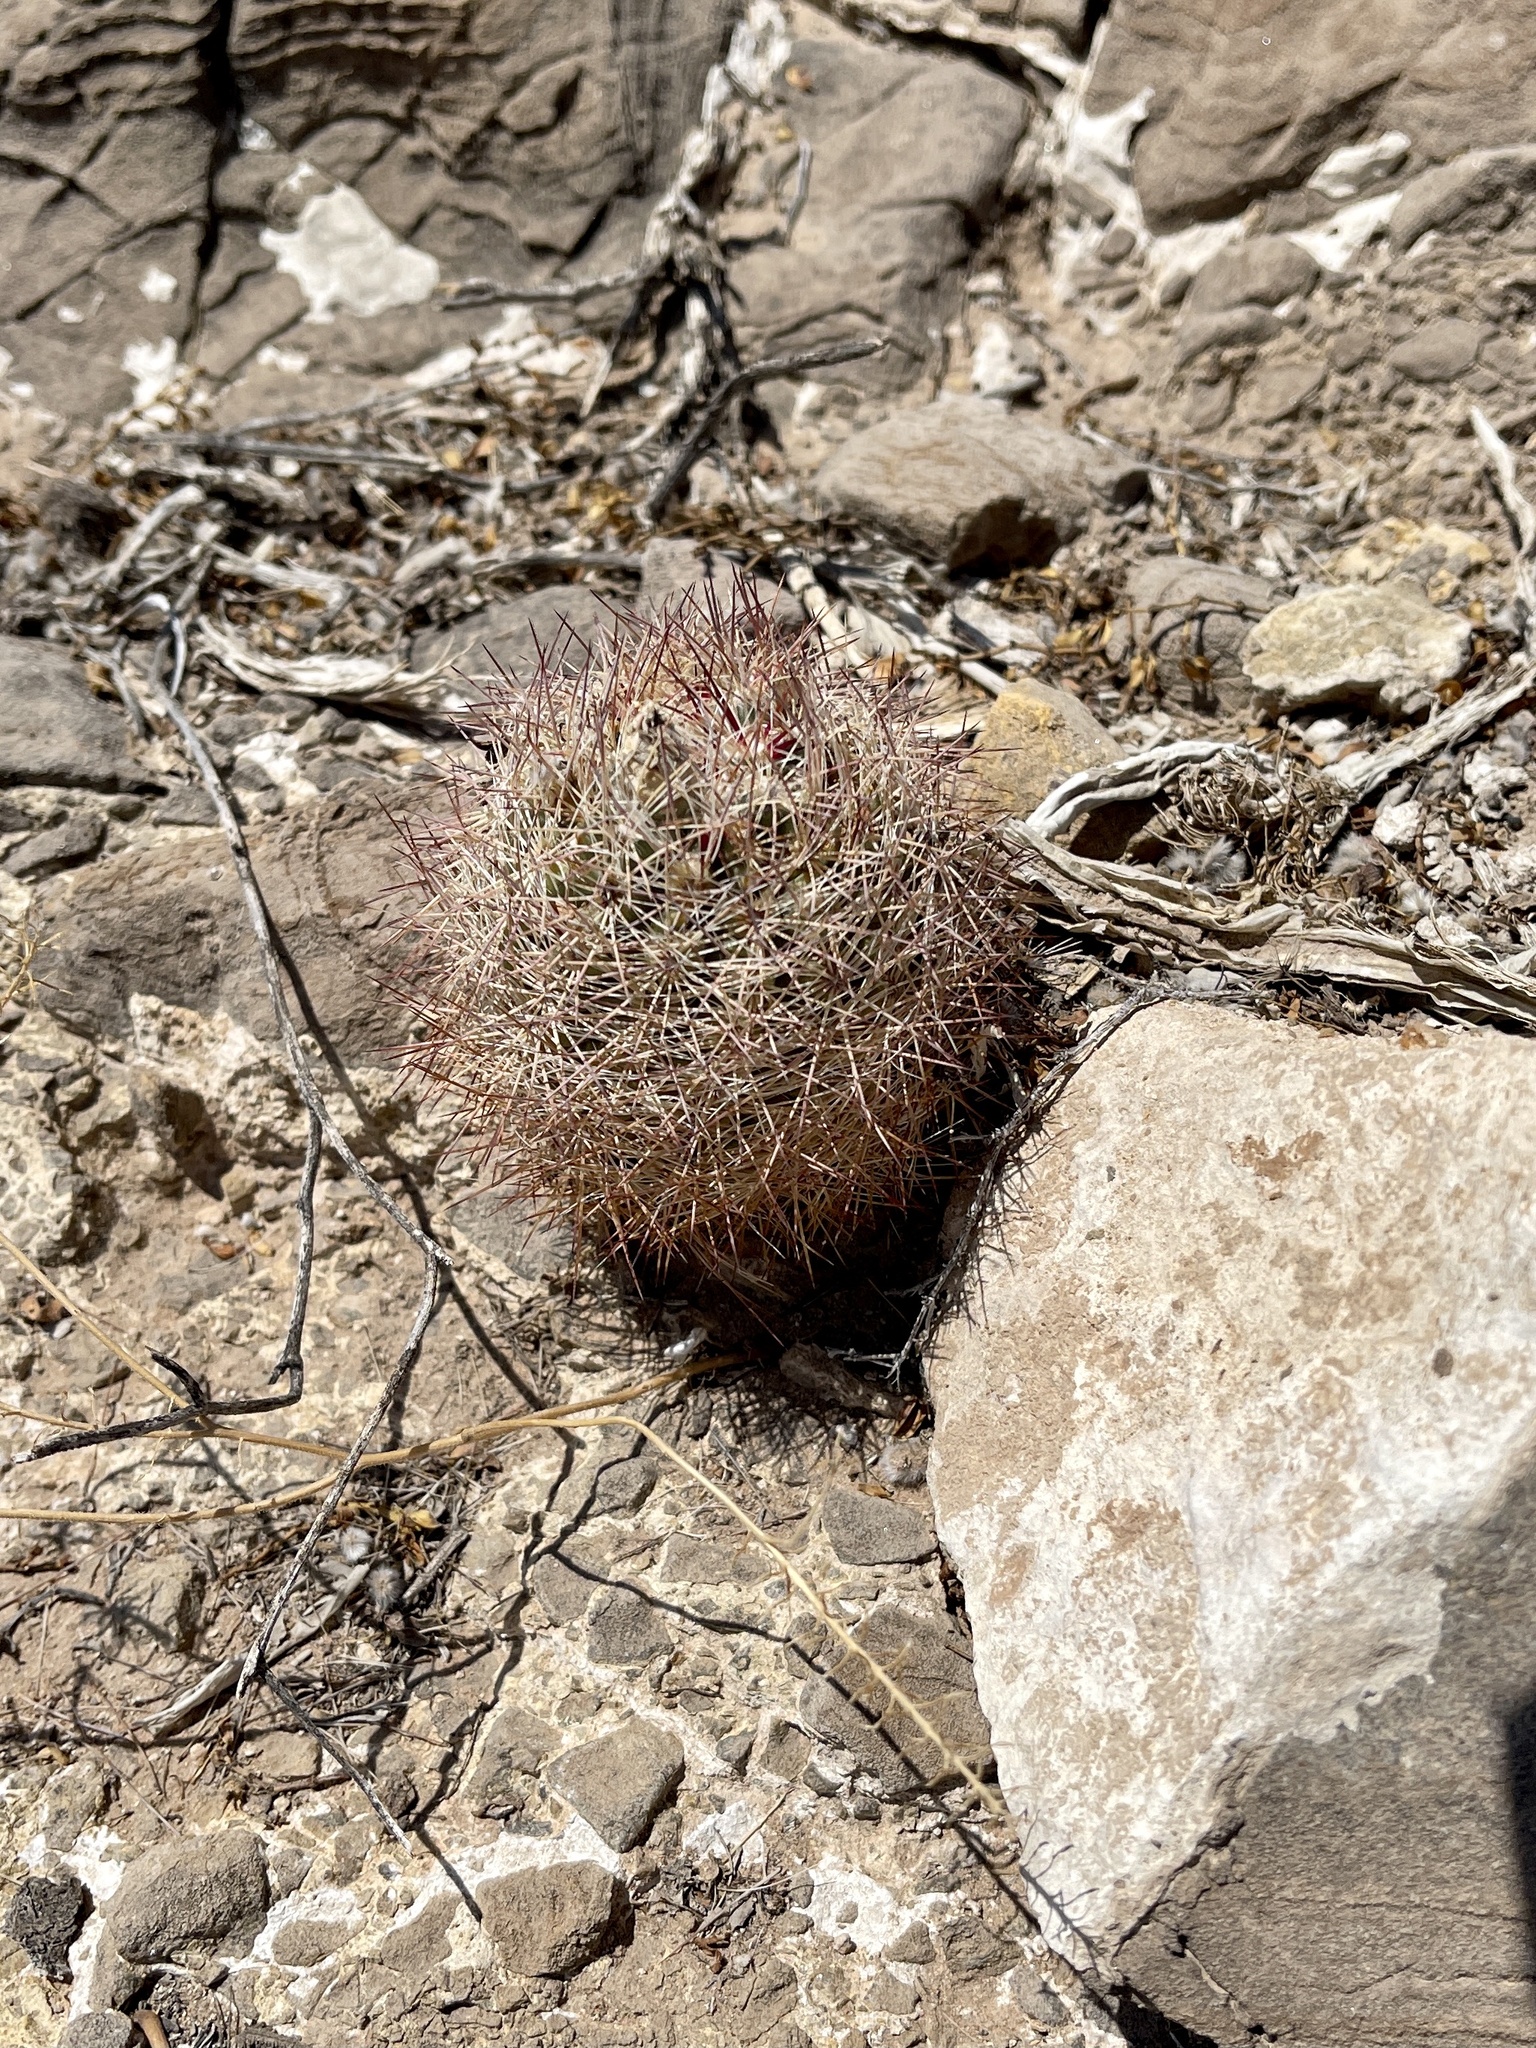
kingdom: Plantae
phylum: Tracheophyta
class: Magnoliopsida
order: Caryophyllales
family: Cactaceae
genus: Sclerocactus
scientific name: Sclerocactus intertextus
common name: White fish-hook cactus
